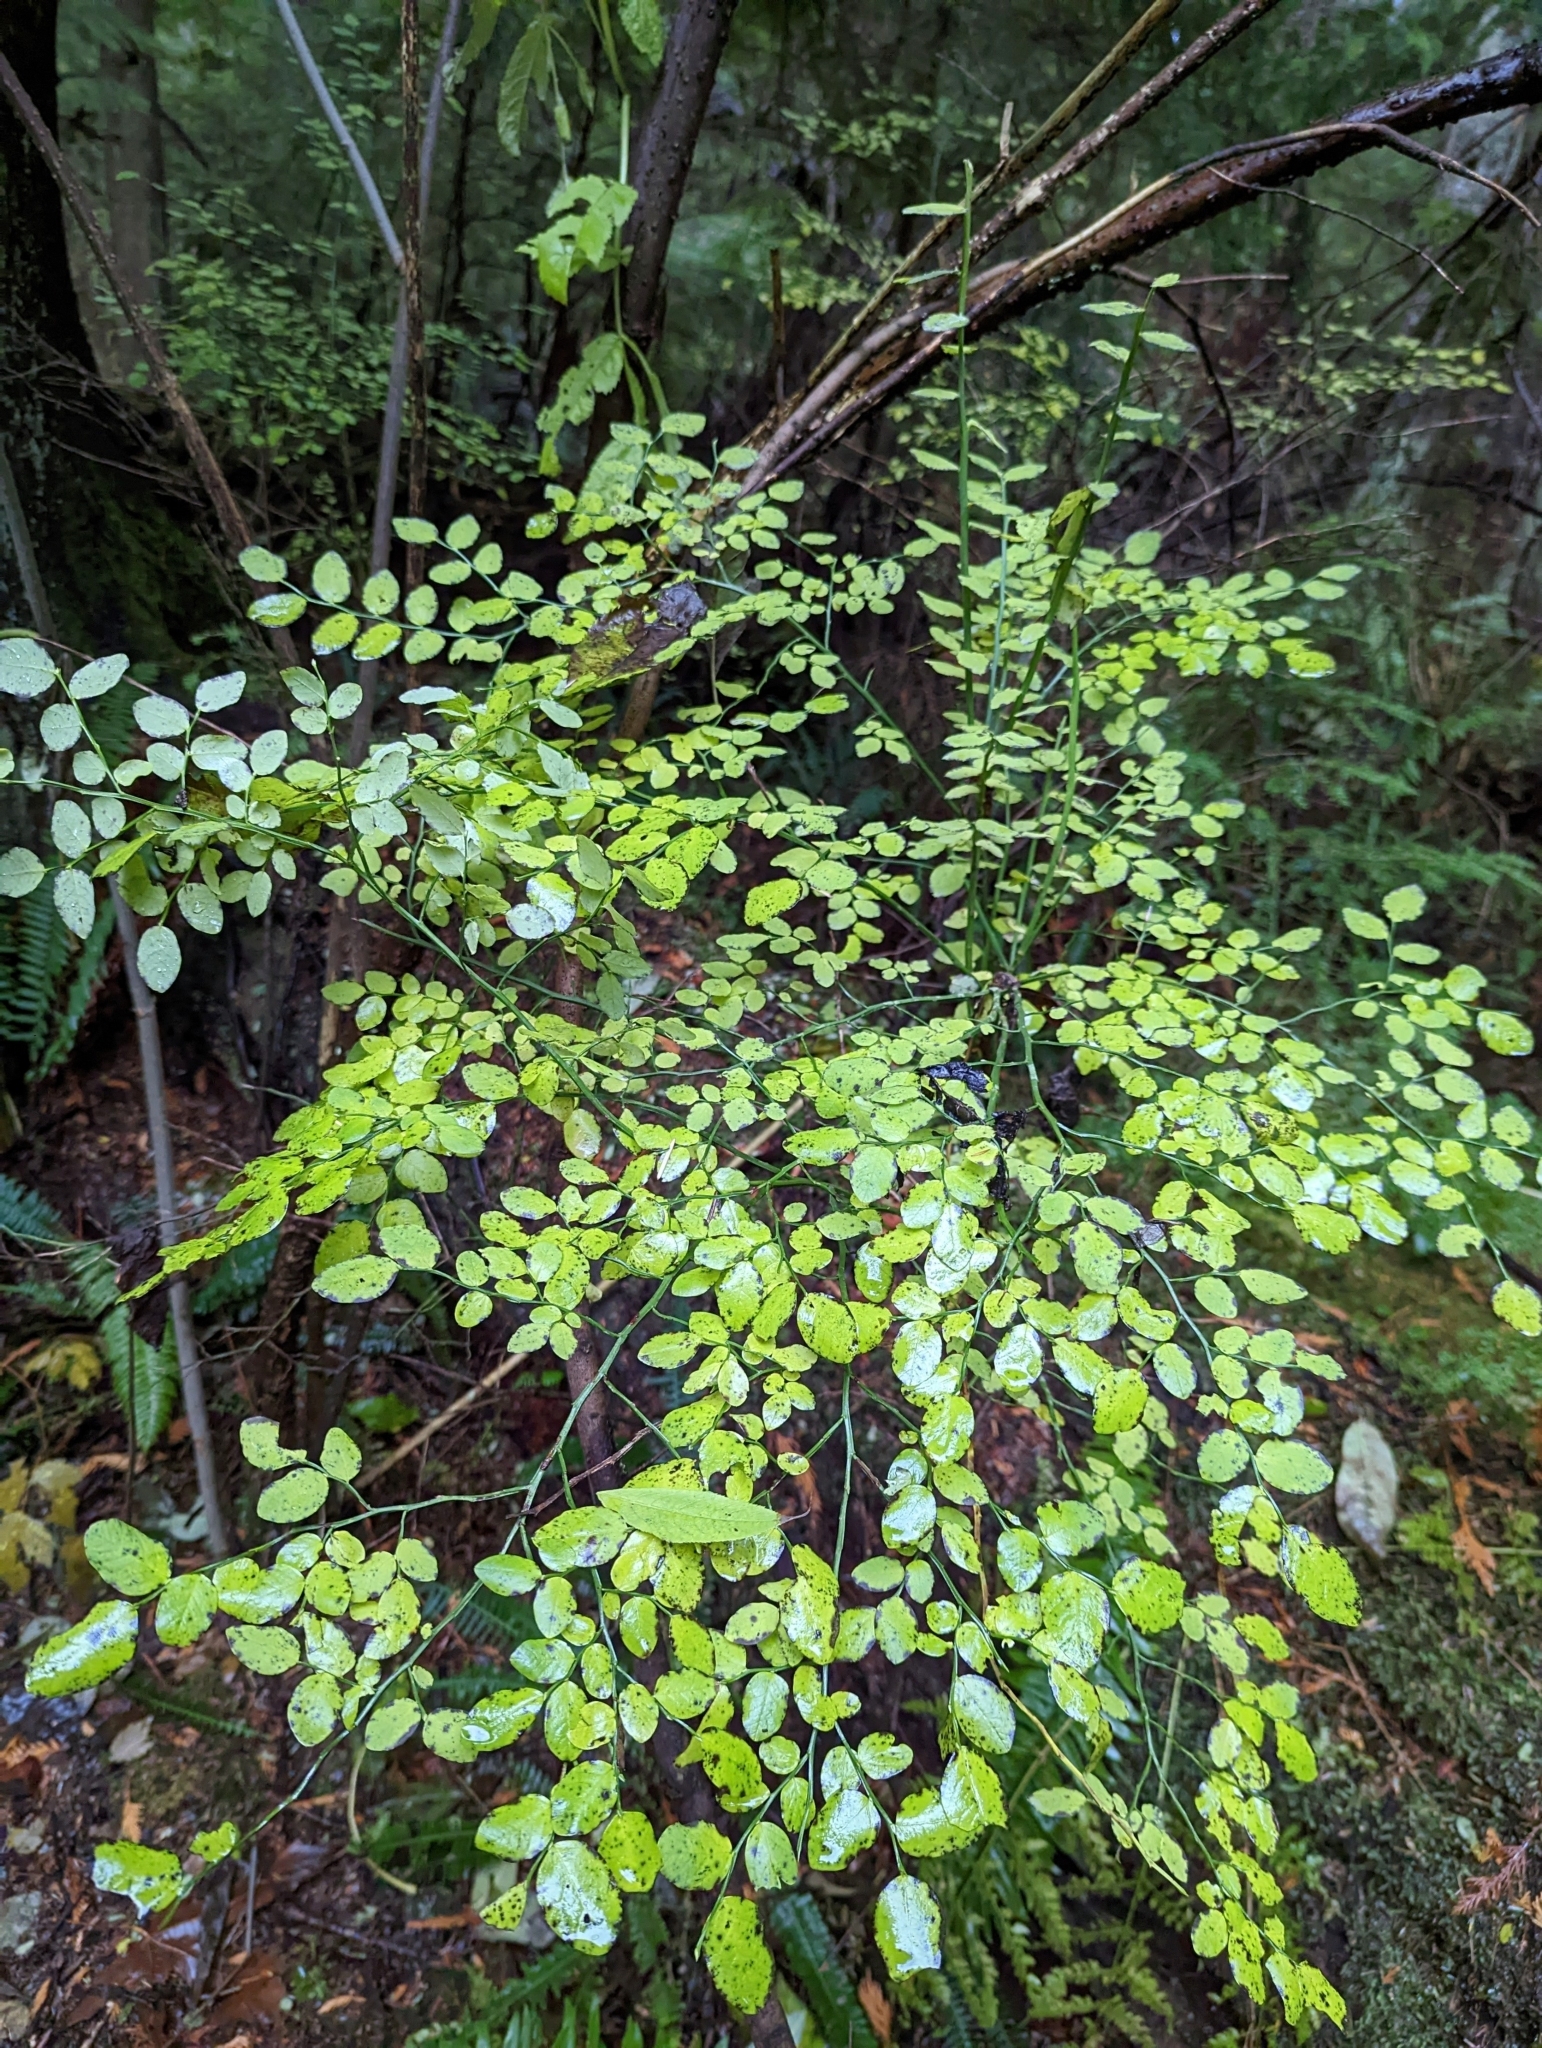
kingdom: Plantae
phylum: Tracheophyta
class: Magnoliopsida
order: Ericales
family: Ericaceae
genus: Vaccinium
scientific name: Vaccinium parvifolium
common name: Red-huckleberry
